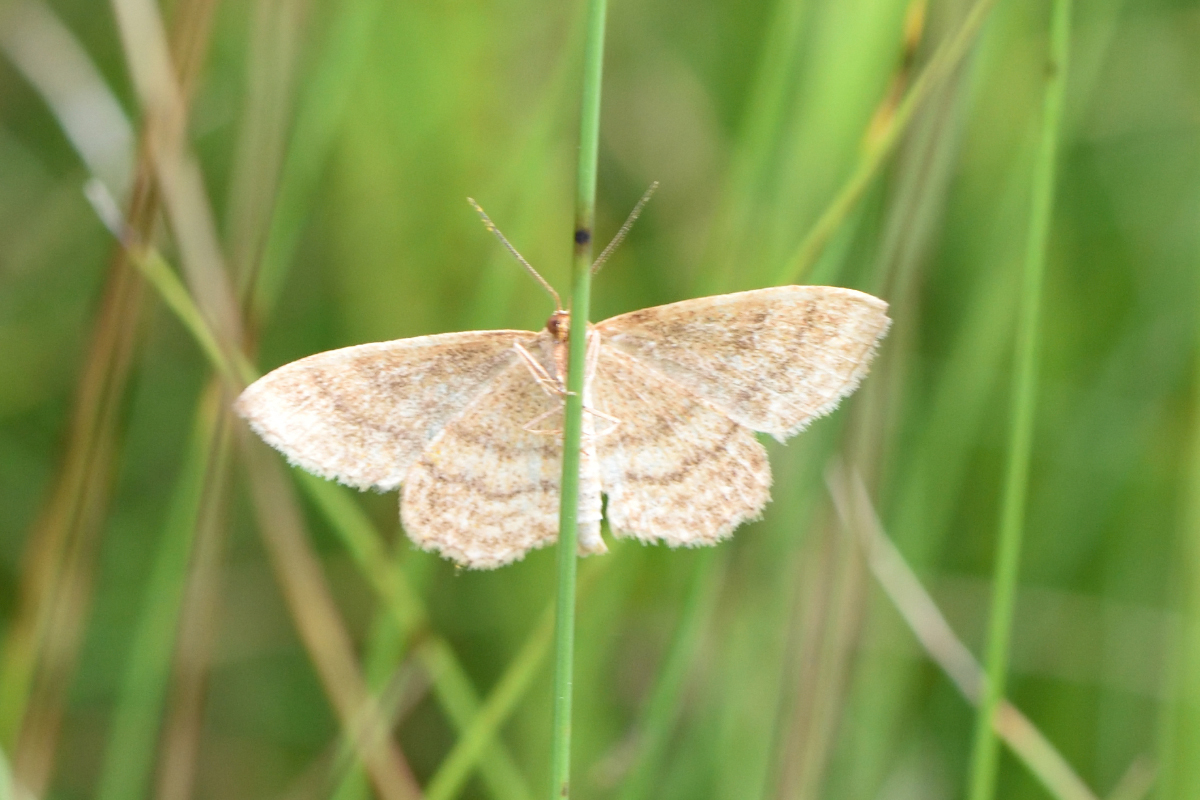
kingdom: Animalia
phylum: Arthropoda
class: Insecta
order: Lepidoptera
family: Geometridae
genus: Idaea
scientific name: Idaea ochrata
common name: Bright wave
